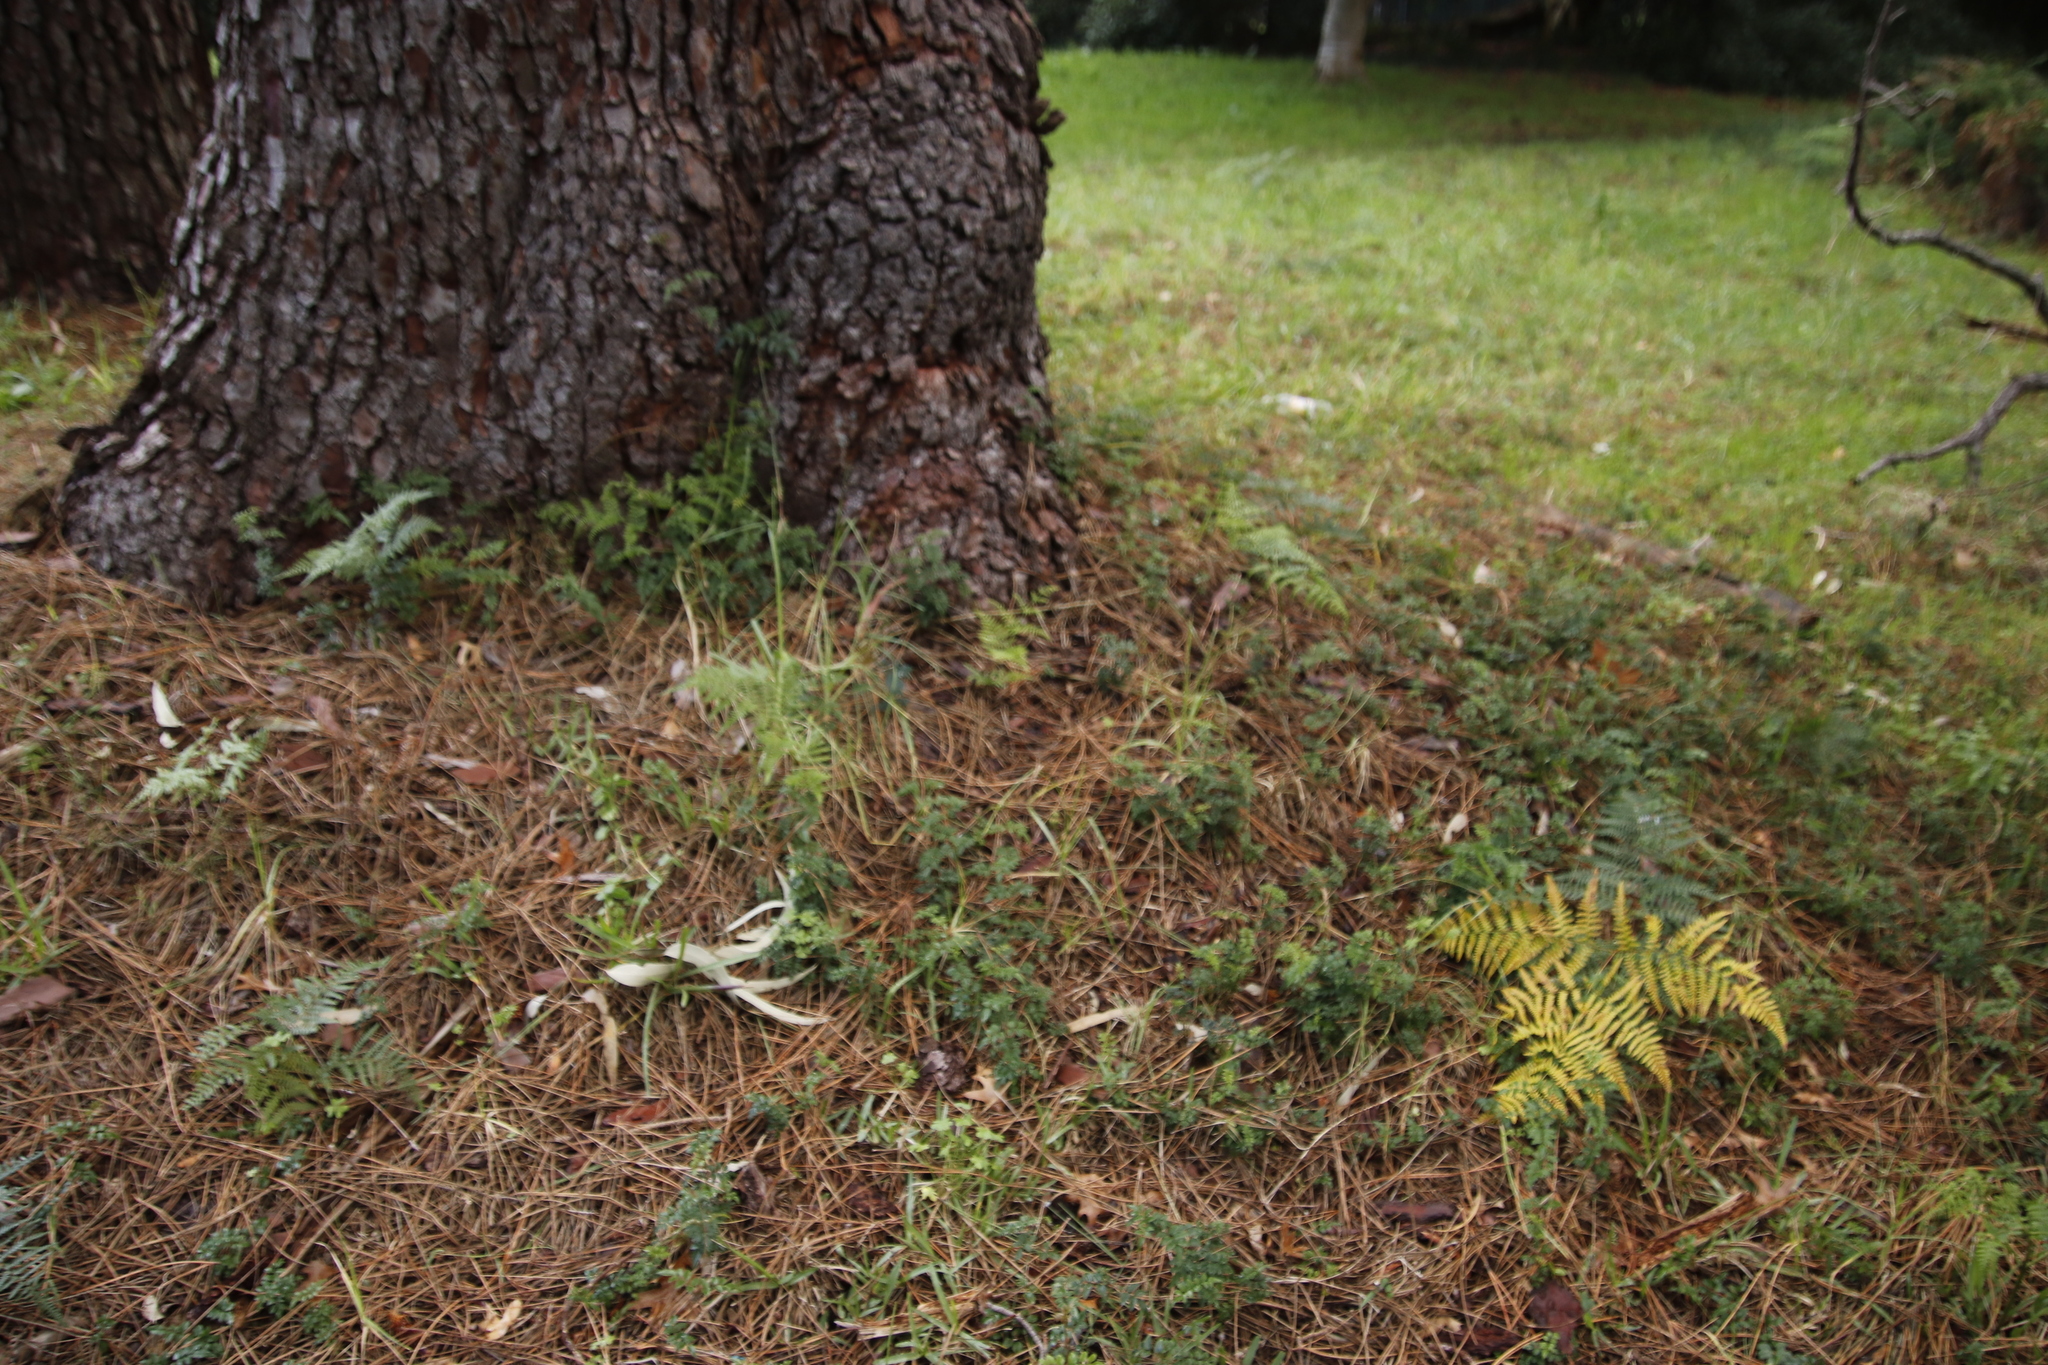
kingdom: Plantae
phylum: Tracheophyta
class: Polypodiopsida
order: Polypodiales
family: Dennstaedtiaceae
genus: Pteridium
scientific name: Pteridium aquilinum
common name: Bracken
